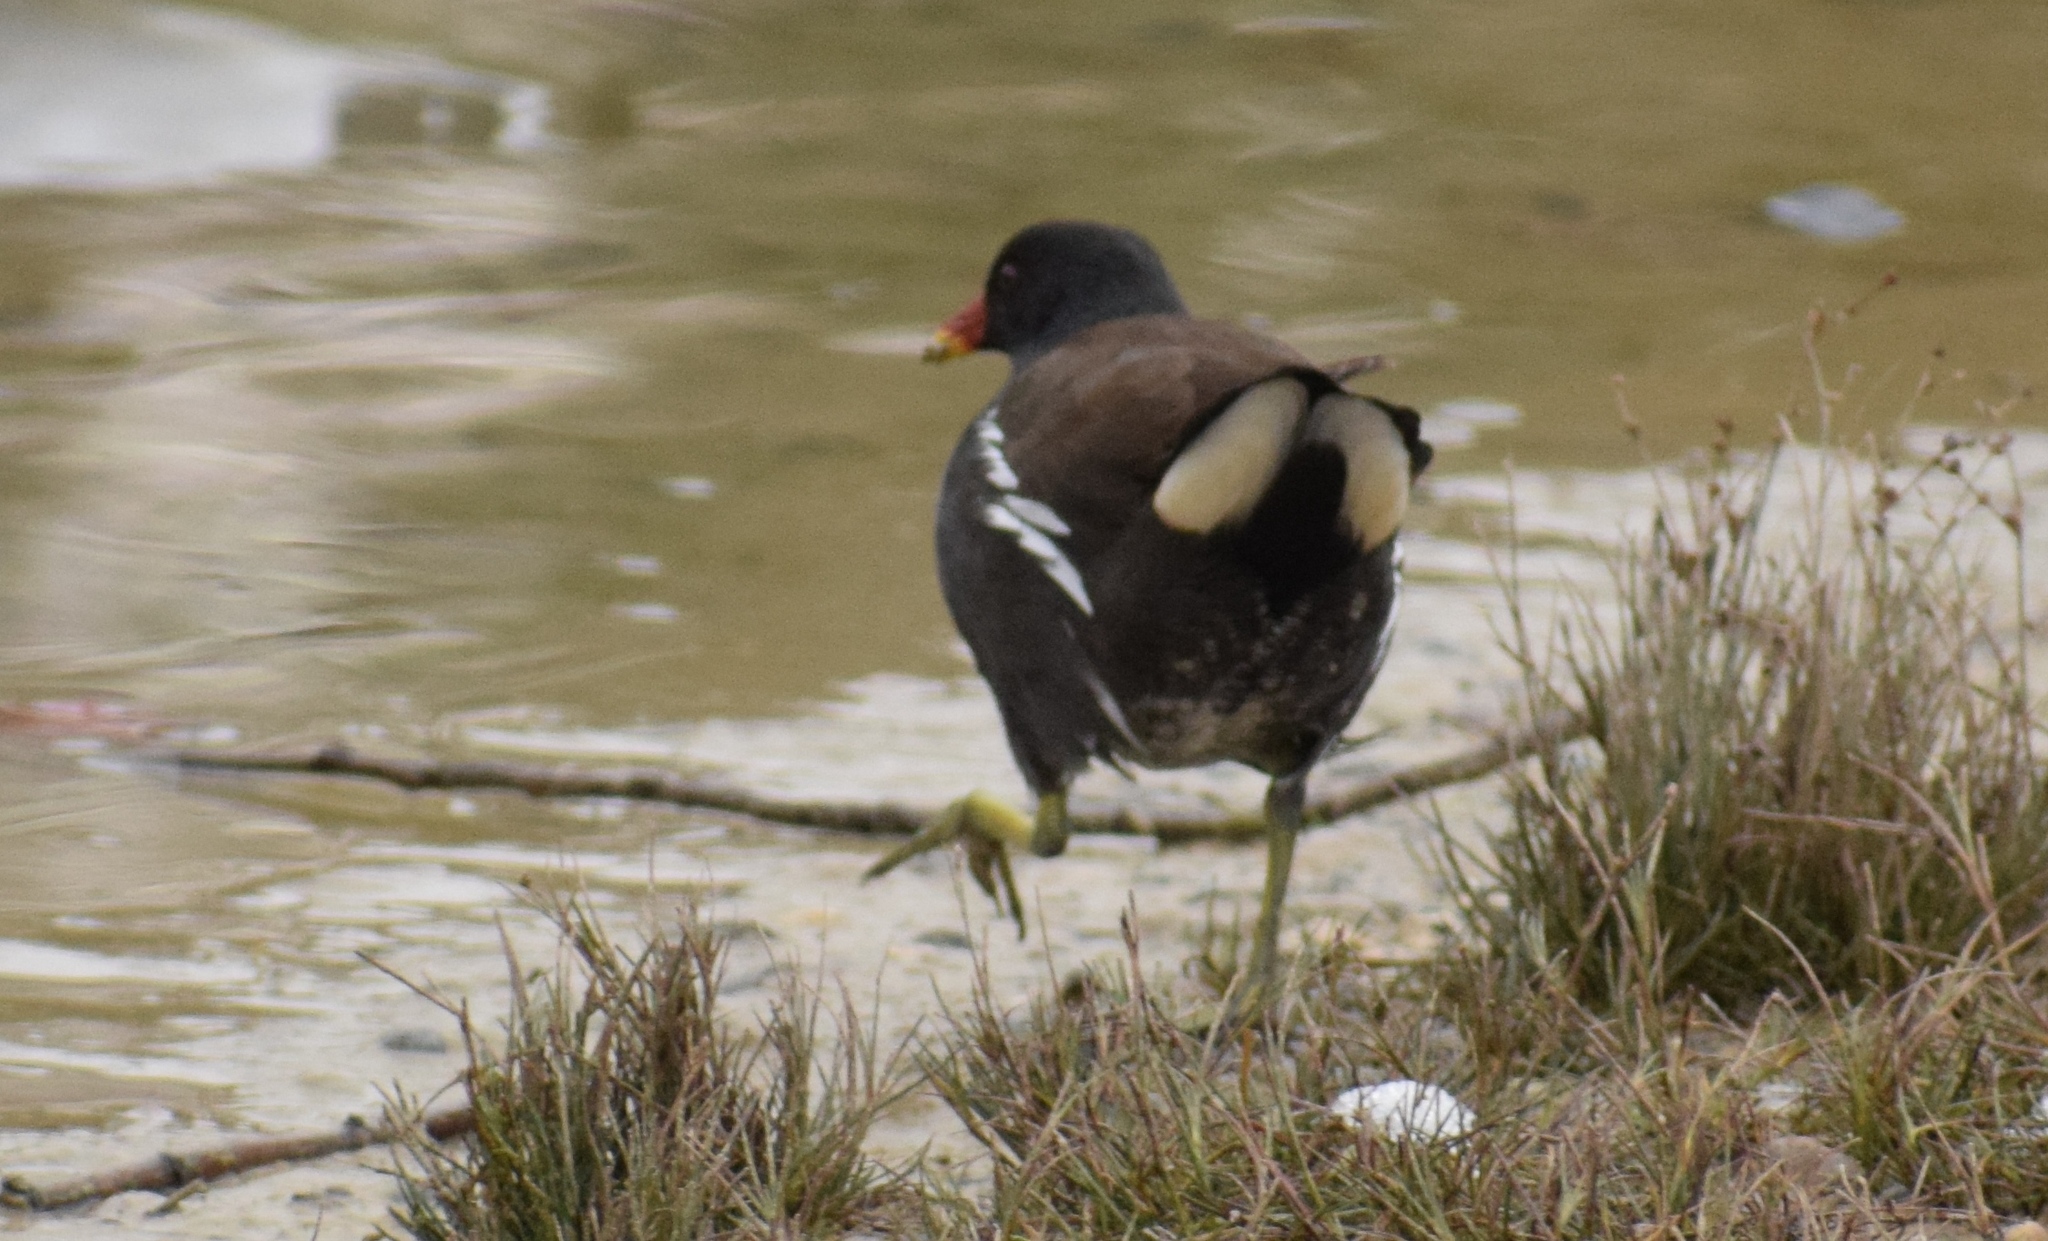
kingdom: Animalia
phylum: Chordata
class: Aves
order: Gruiformes
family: Rallidae
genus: Gallinula
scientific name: Gallinula chloropus
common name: Common moorhen
